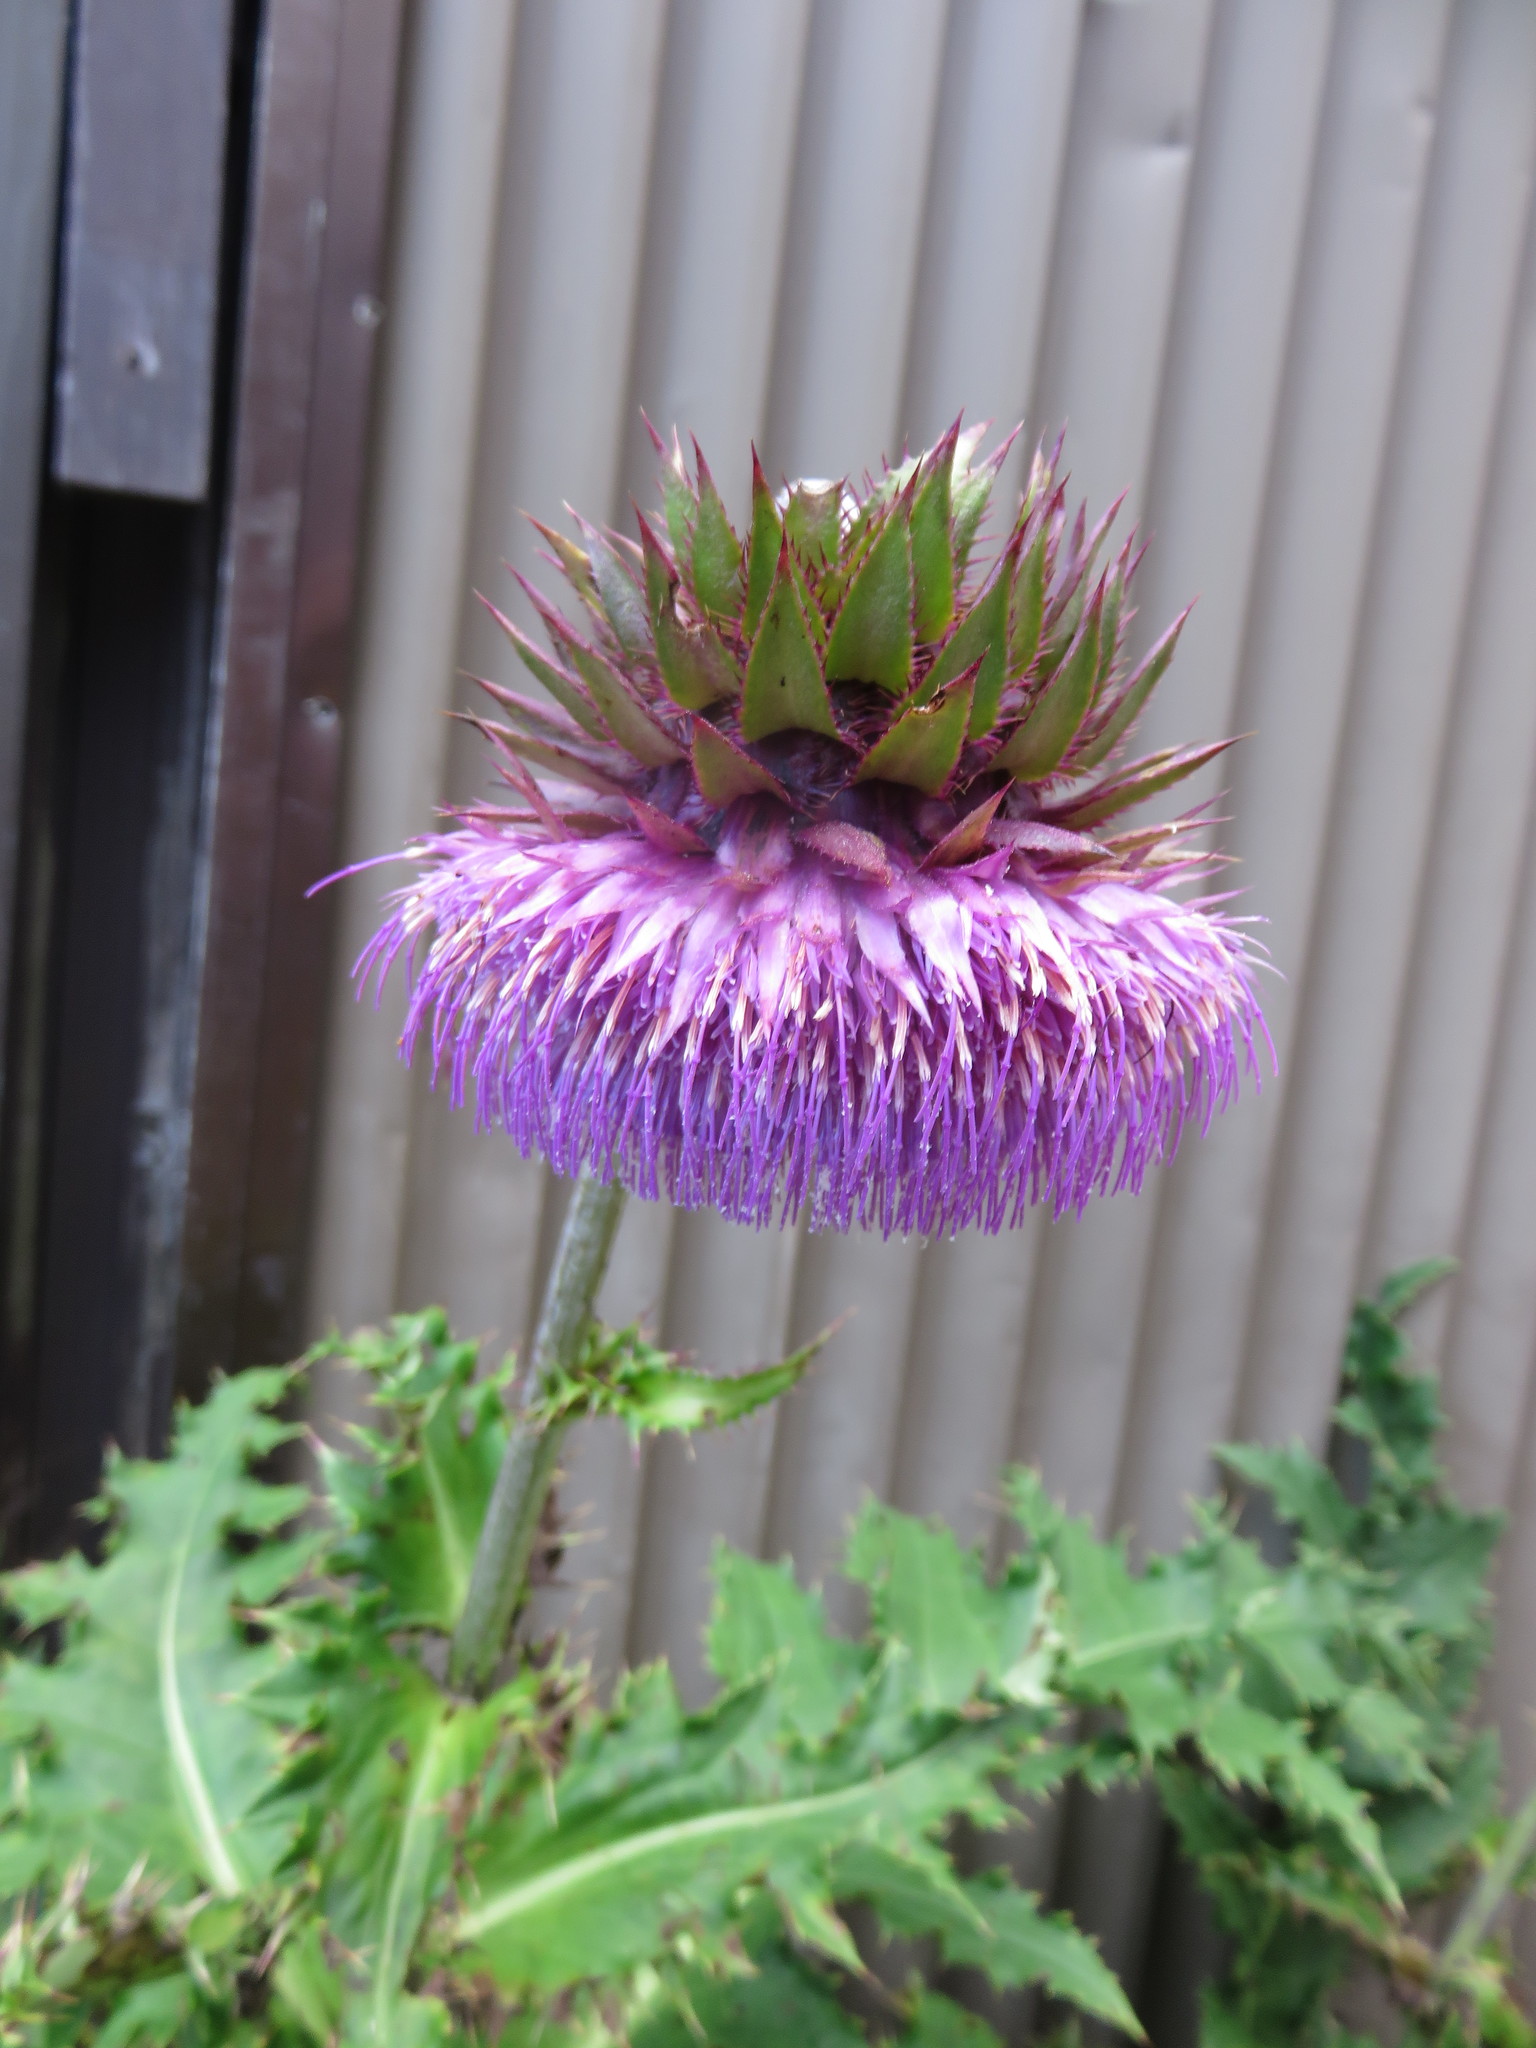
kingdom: Plantae
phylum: Tracheophyta
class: Magnoliopsida
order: Asterales
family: Asteraceae
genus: Cirsium
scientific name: Cirsium purpuratum
